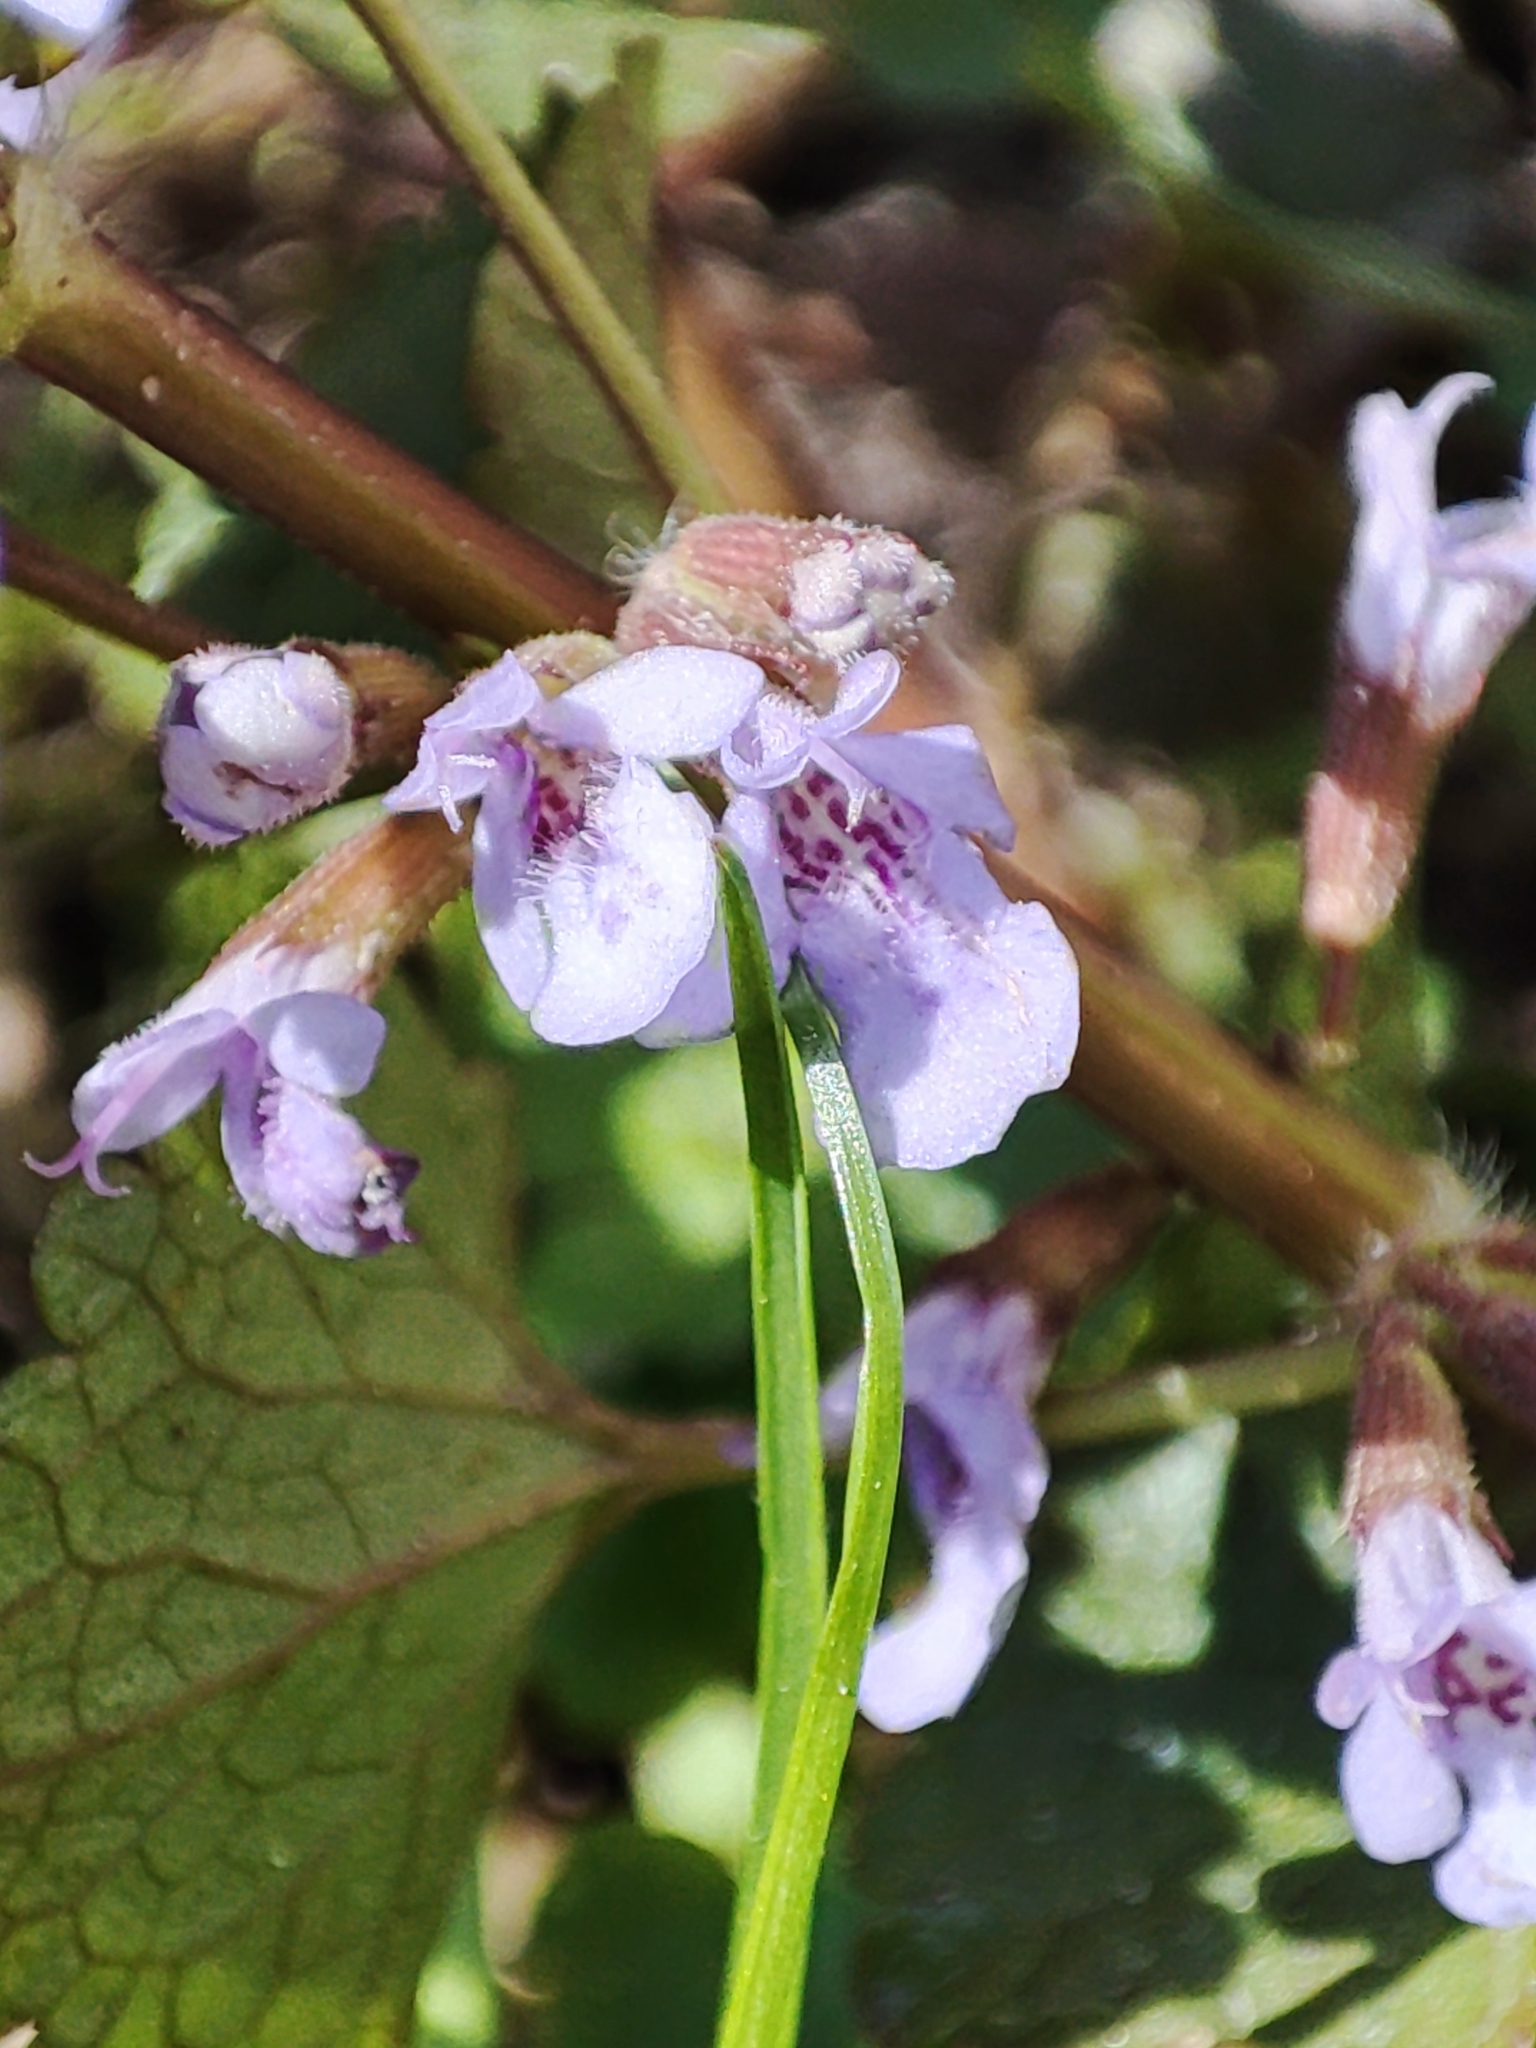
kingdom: Plantae
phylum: Tracheophyta
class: Magnoliopsida
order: Lamiales
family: Lamiaceae
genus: Glechoma
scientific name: Glechoma hederacea
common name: Ground ivy
